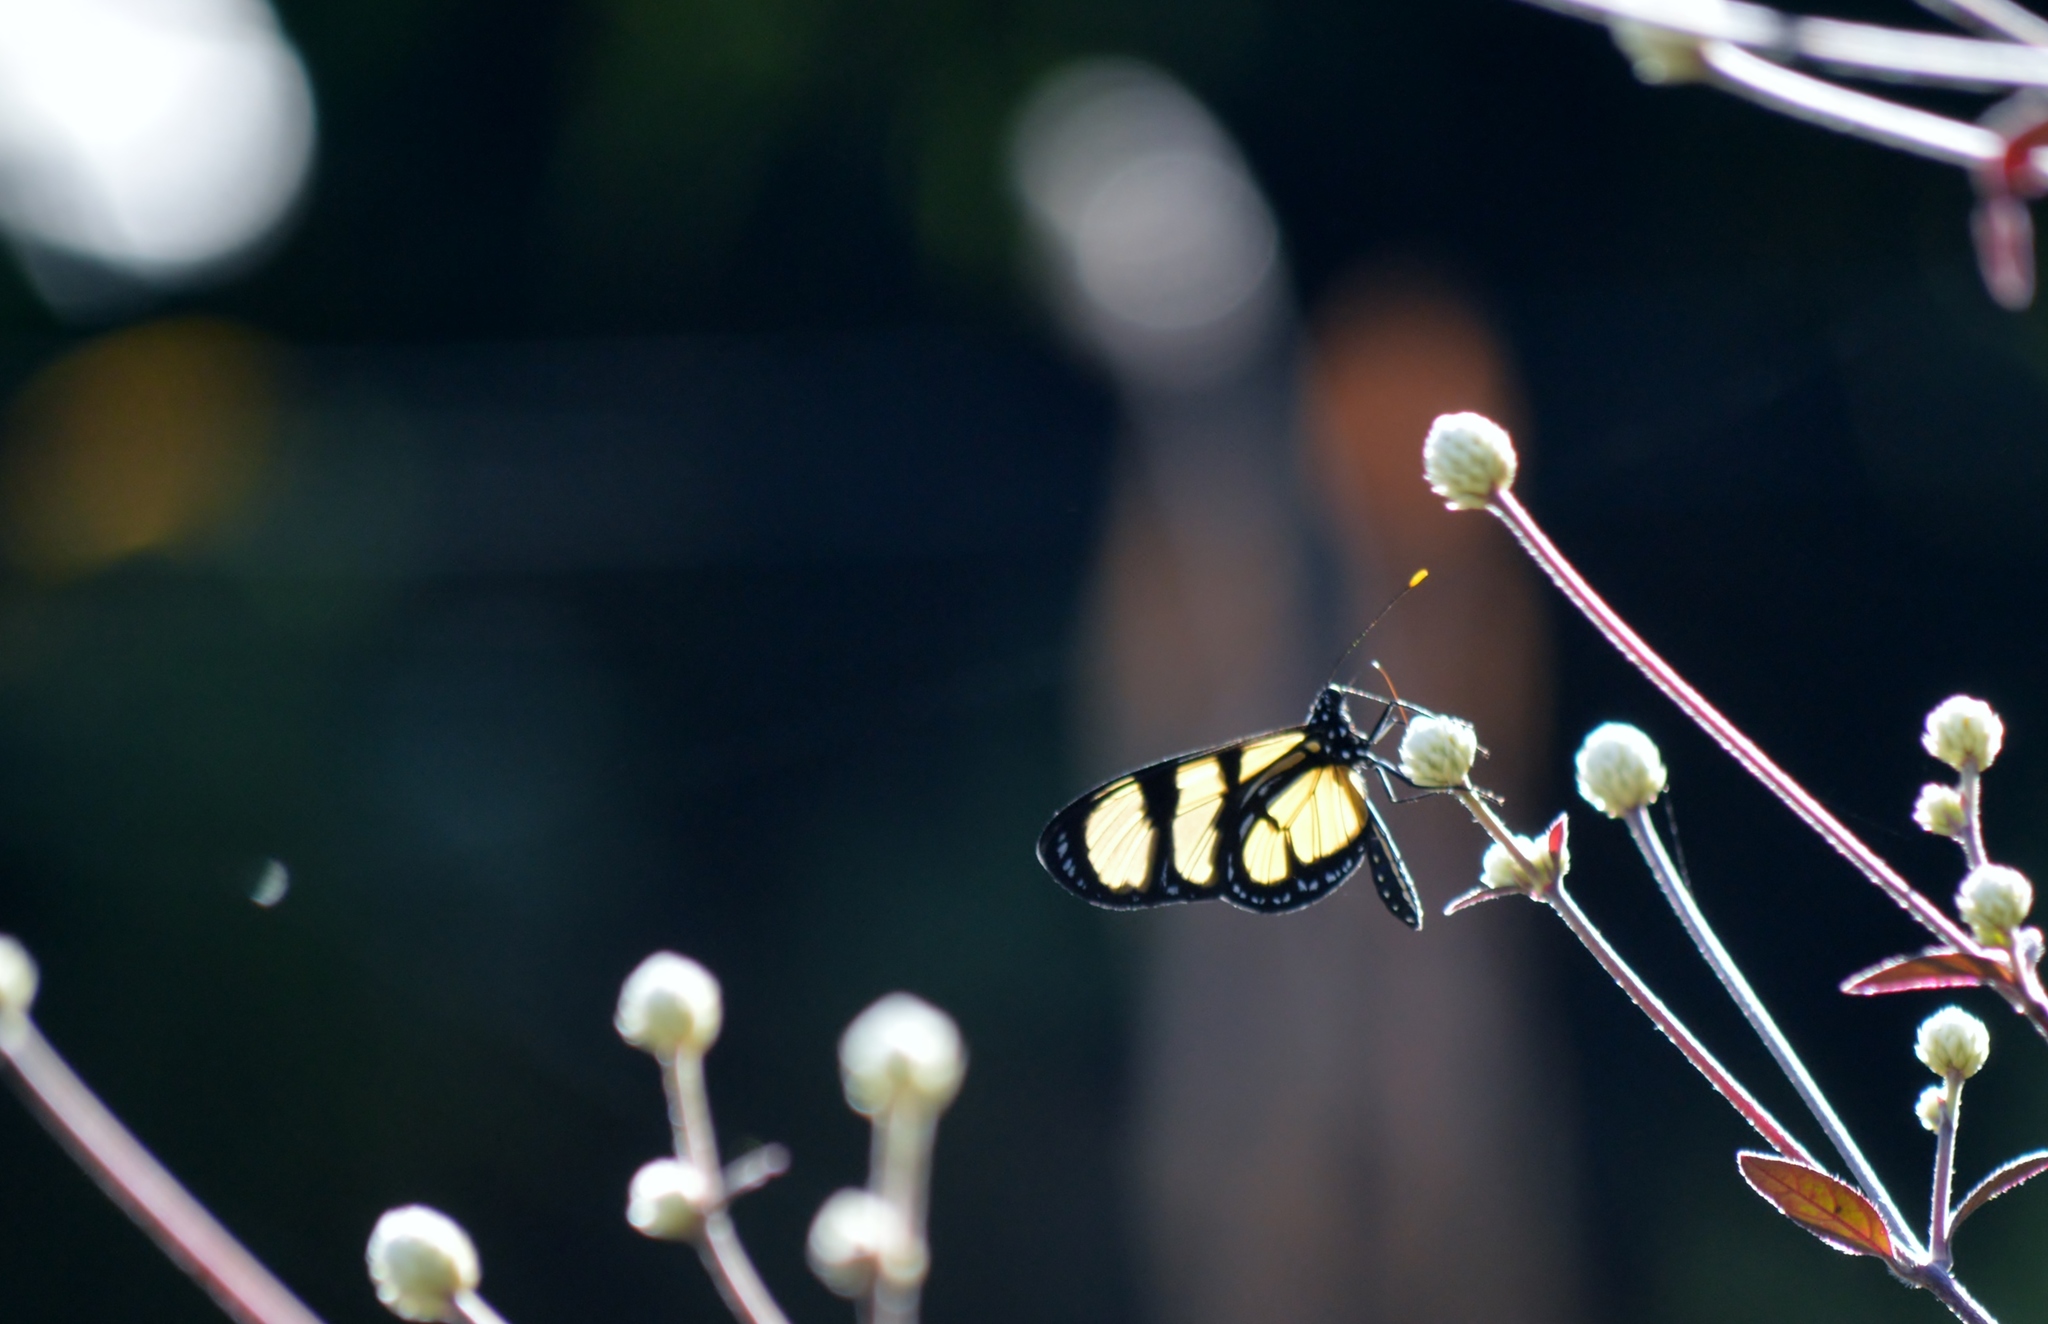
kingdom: Animalia
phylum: Arthropoda
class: Insecta
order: Lepidoptera
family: Nymphalidae
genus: Methona
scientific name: Methona themisto
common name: Themisto amberwing
